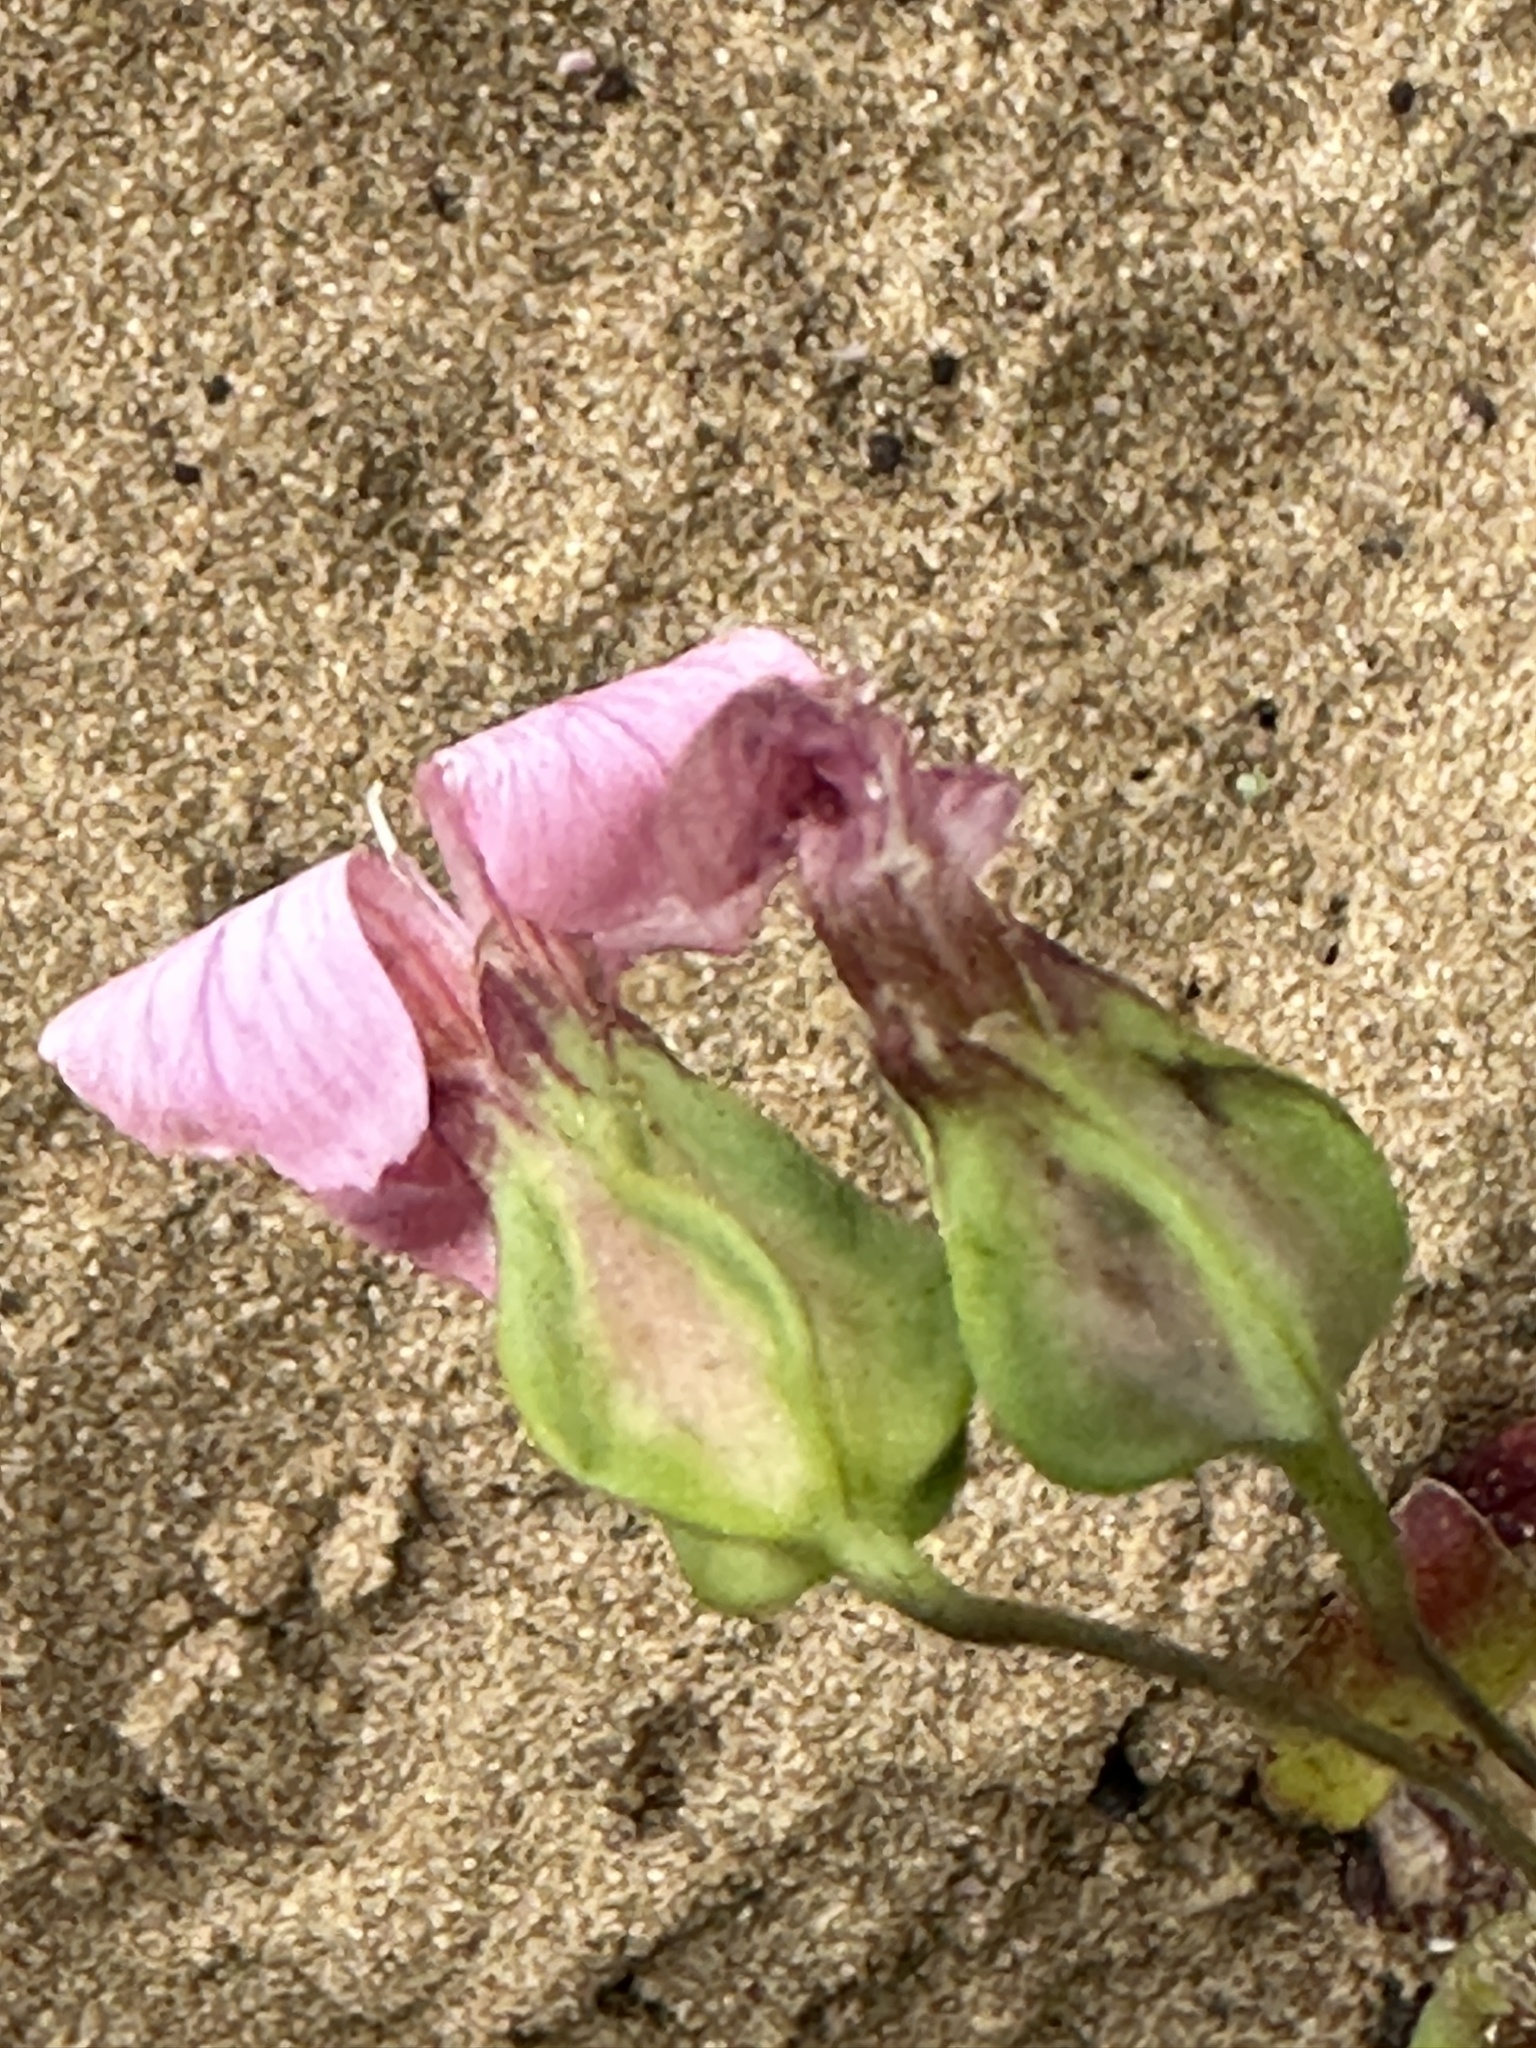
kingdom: Plantae
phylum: Tracheophyta
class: Magnoliopsida
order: Caryophyllales
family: Caryophyllaceae
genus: Gypsophila
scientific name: Gypsophila vaccaria
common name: Cow soapwort
